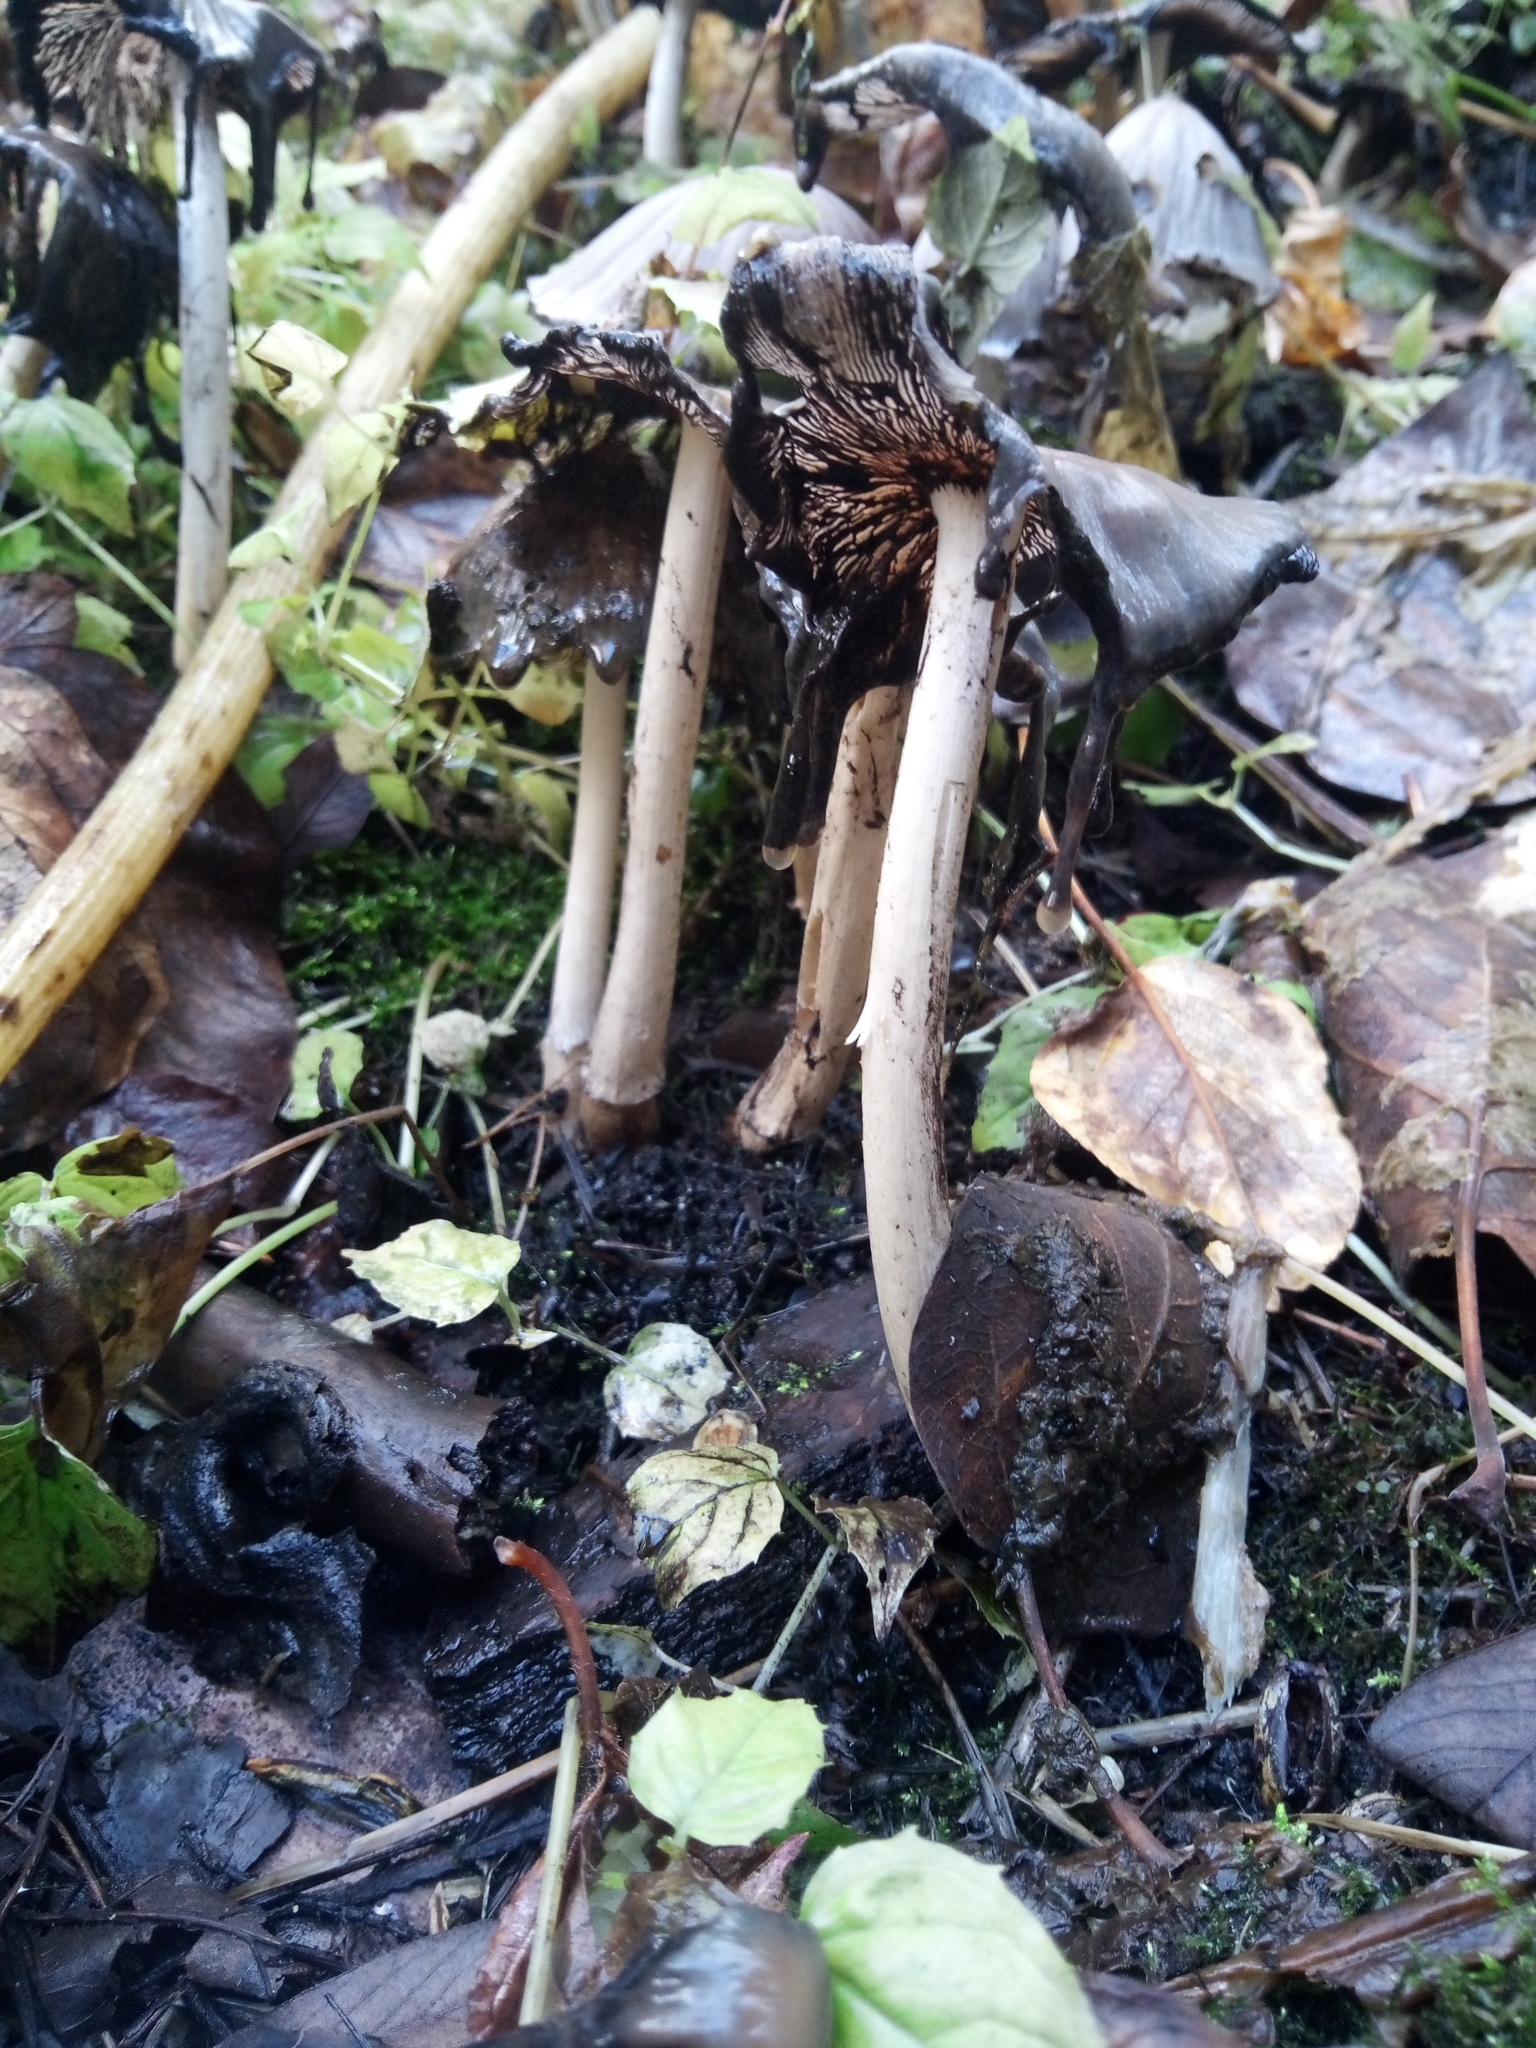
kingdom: Fungi
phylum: Basidiomycota
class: Agaricomycetes
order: Agaricales
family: Psathyrellaceae
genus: Coprinopsis
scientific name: Coprinopsis atramentaria
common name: Common ink-cap
